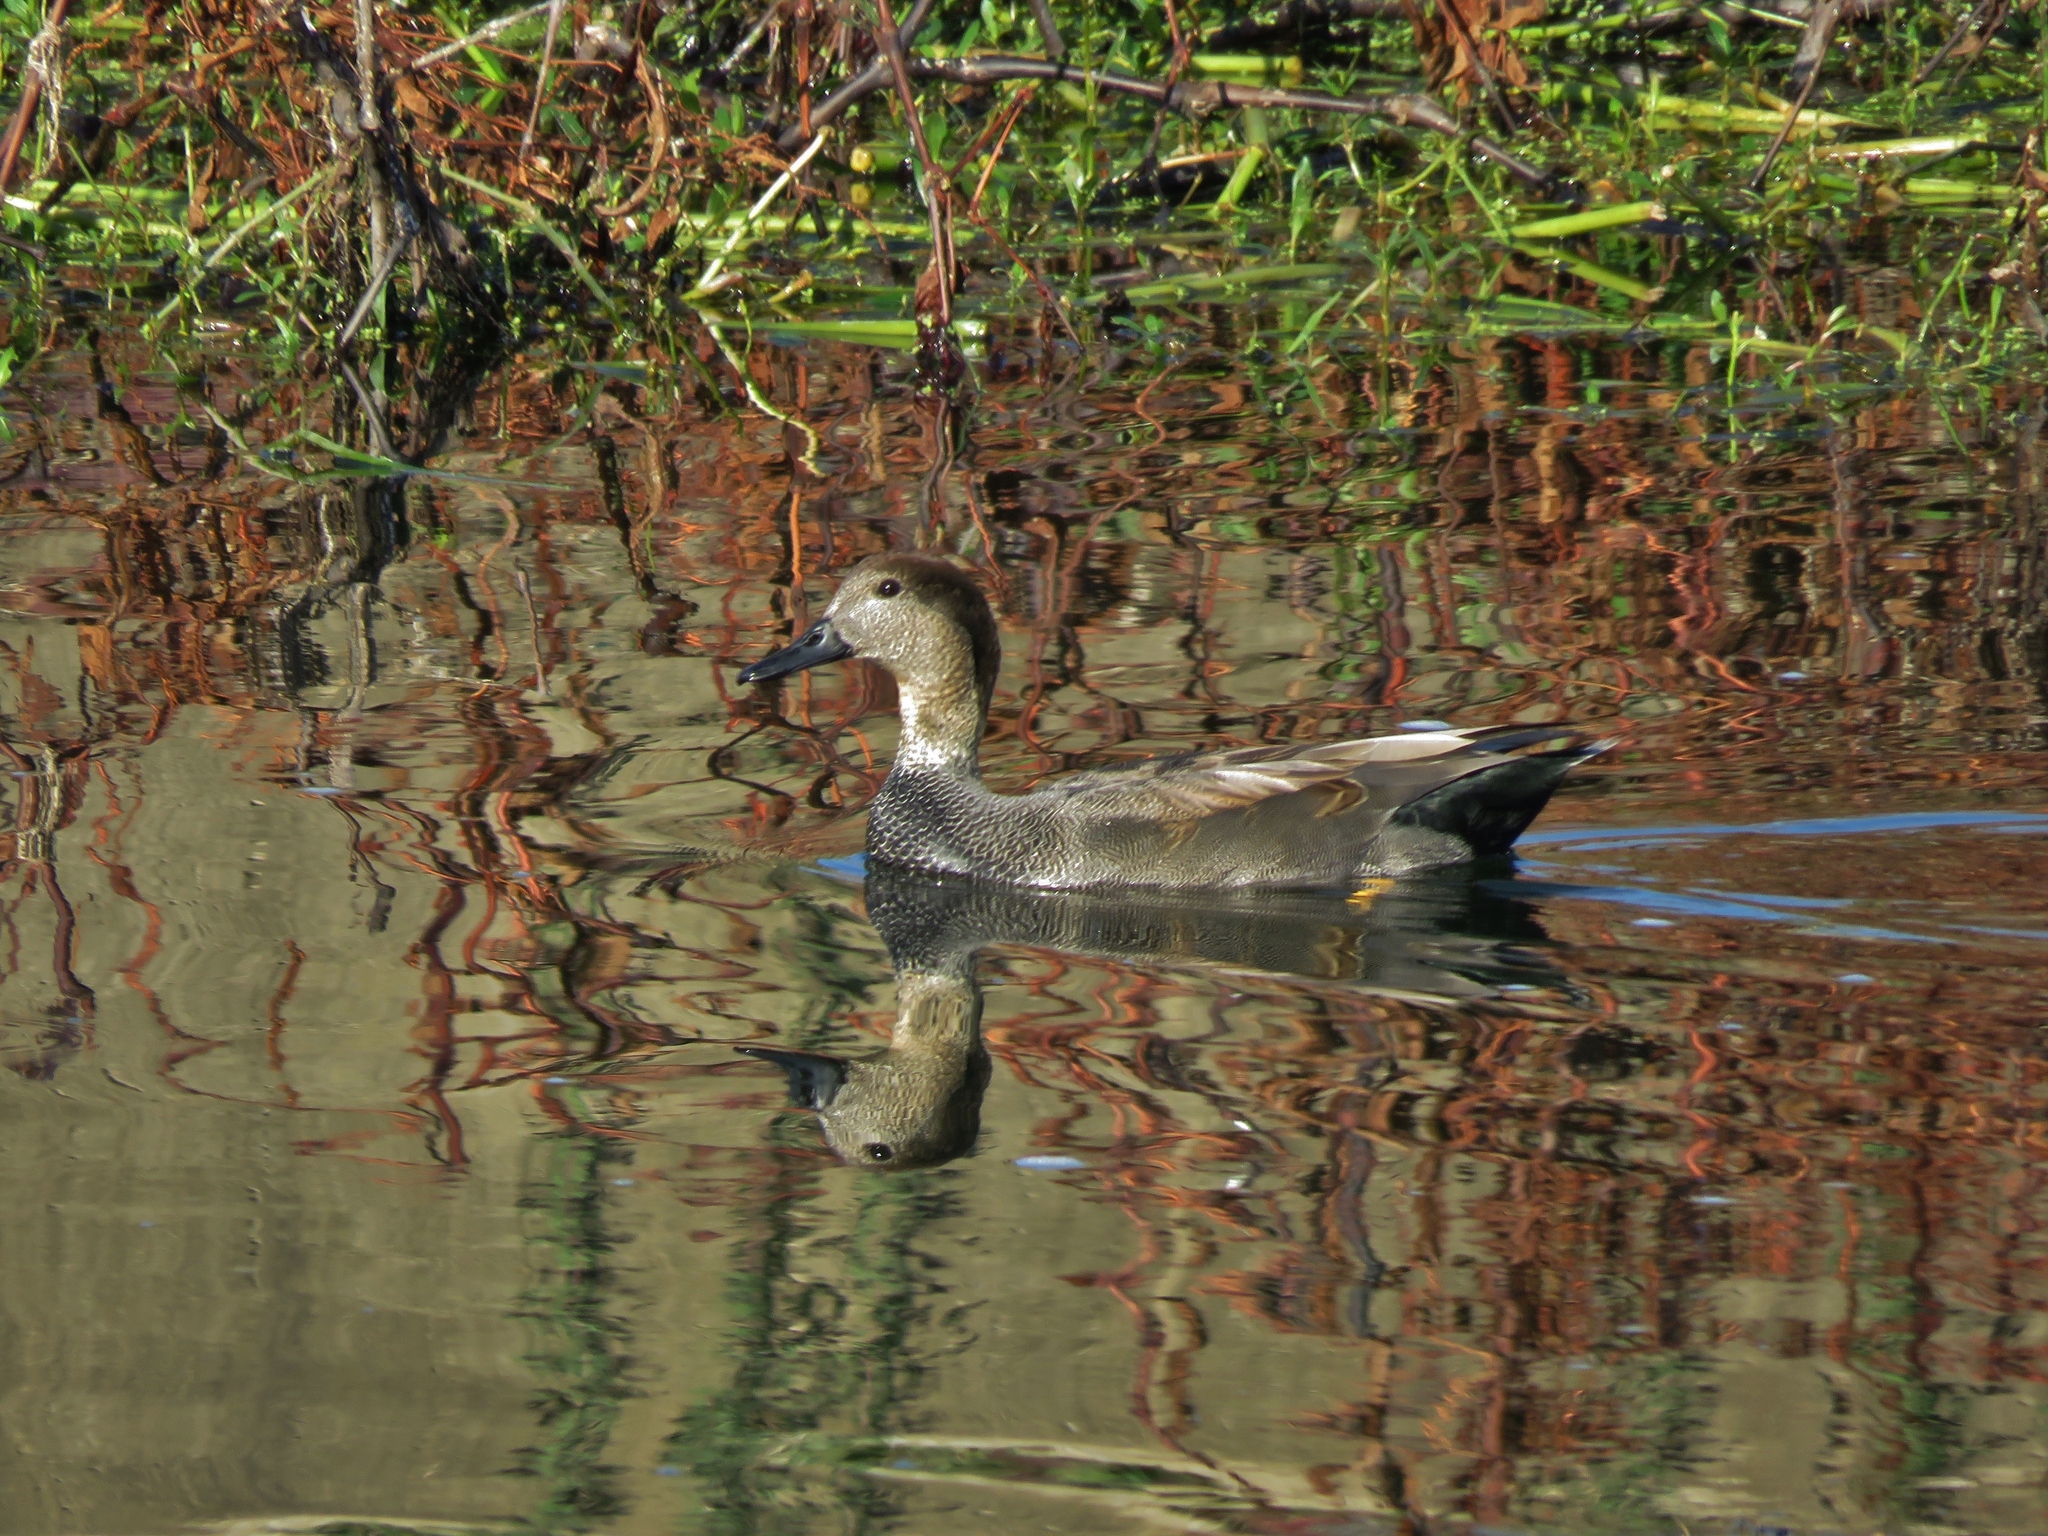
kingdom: Animalia
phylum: Chordata
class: Aves
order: Anseriformes
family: Anatidae
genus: Mareca
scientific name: Mareca strepera
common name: Gadwall
